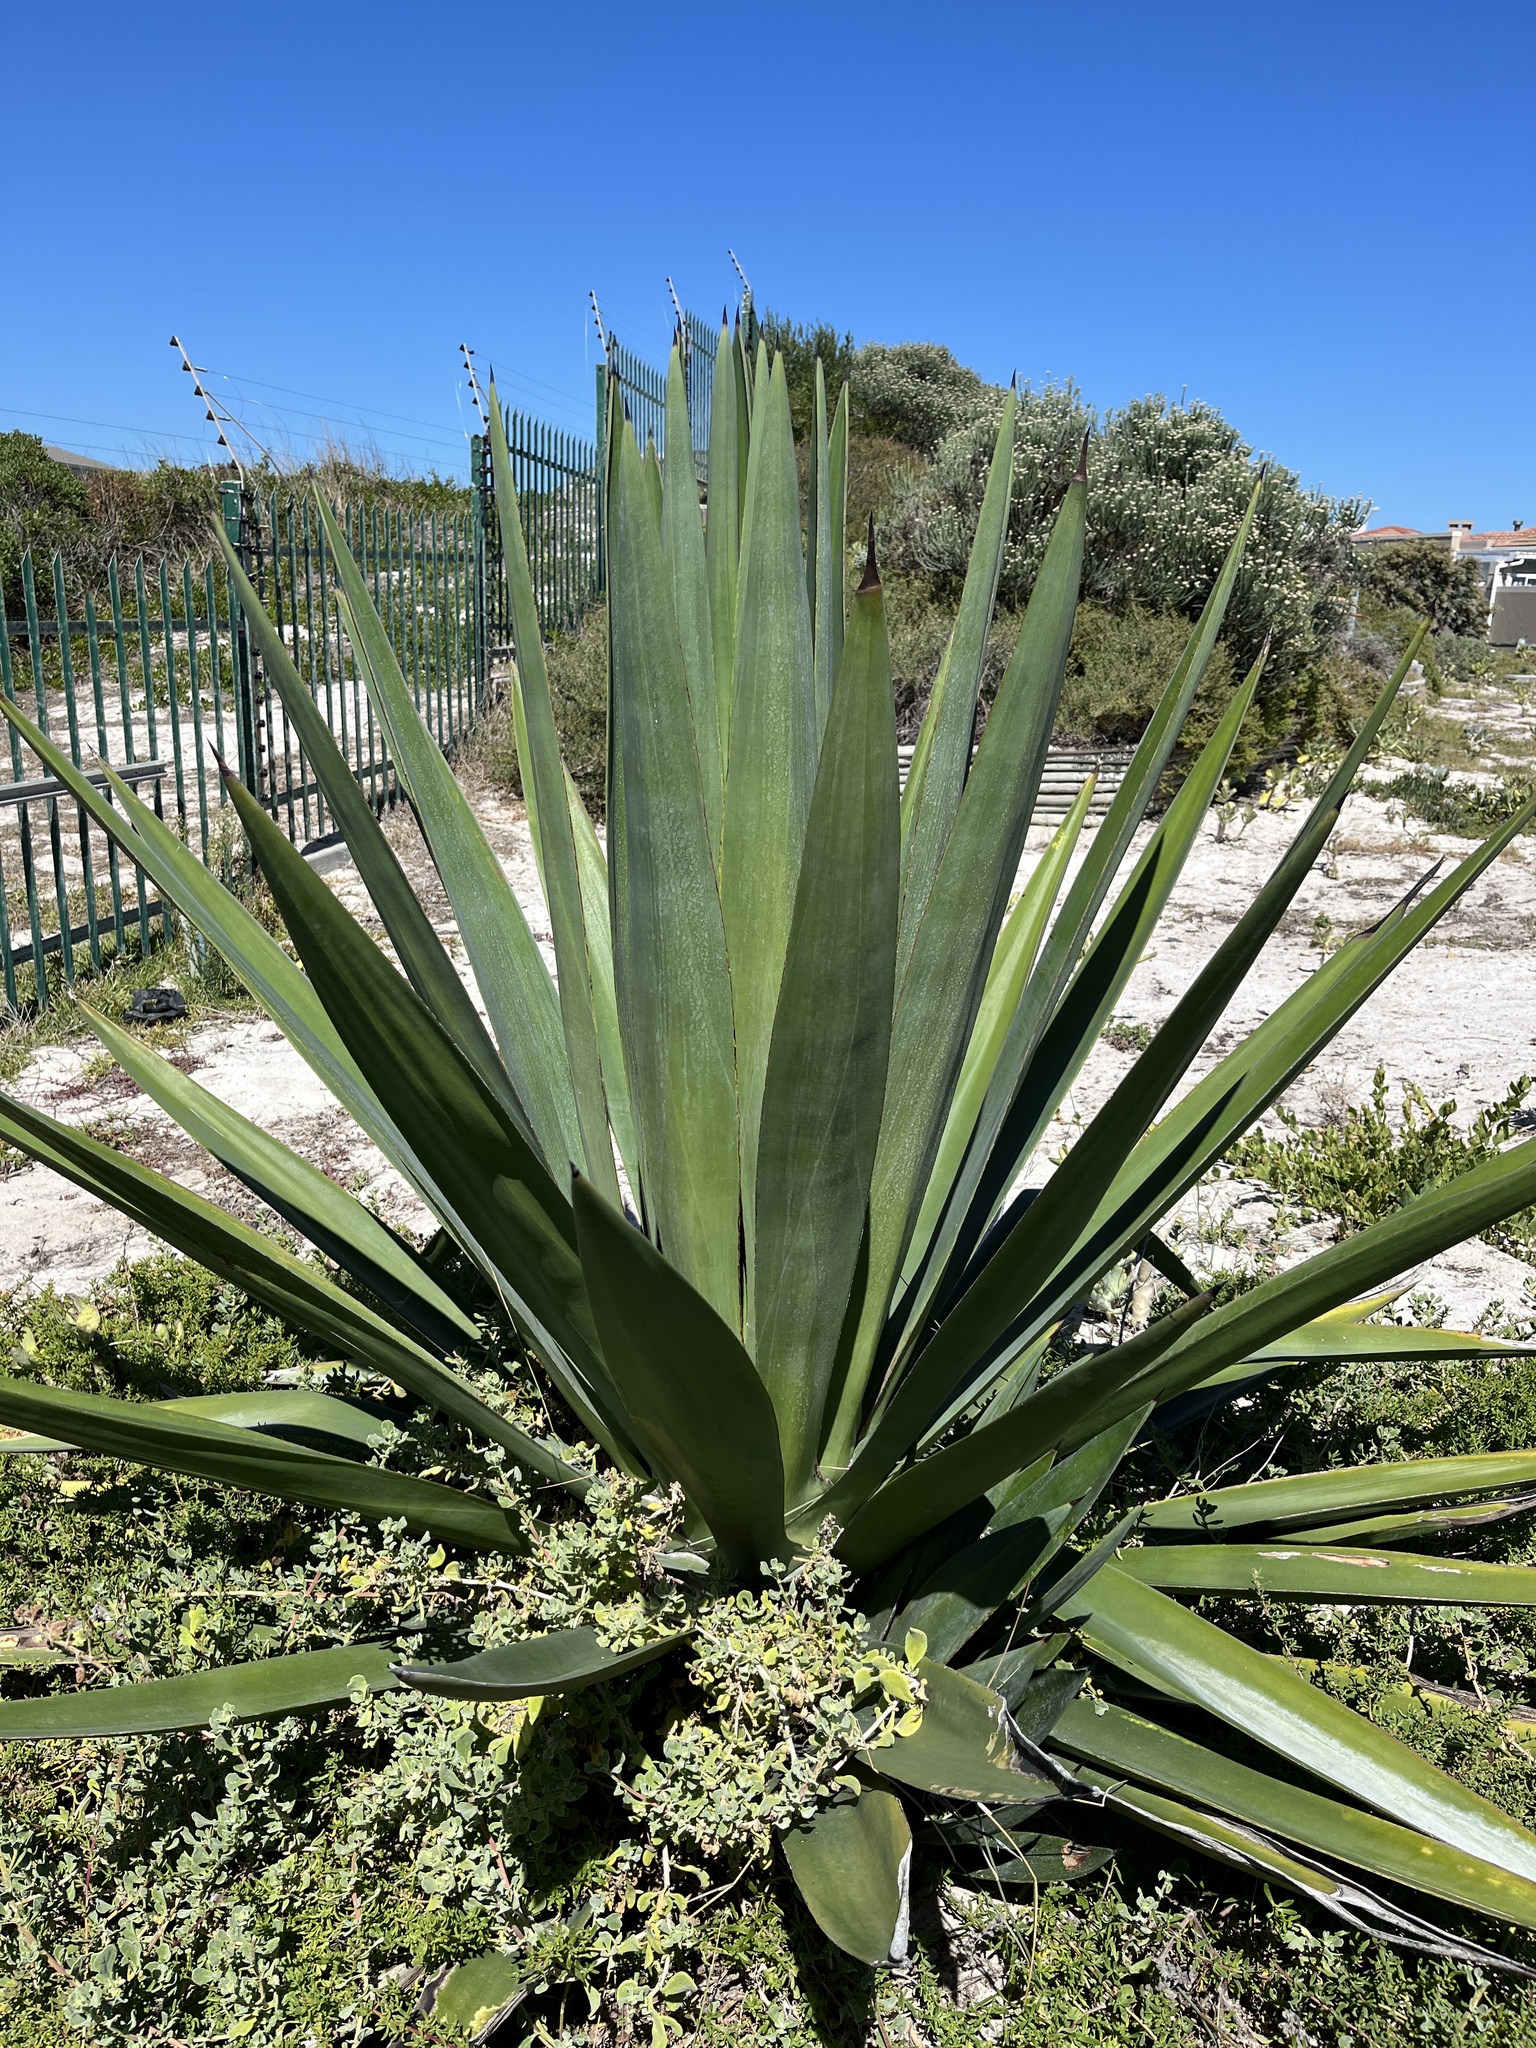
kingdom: Plantae
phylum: Tracheophyta
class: Liliopsida
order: Asparagales
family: Asparagaceae
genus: Agave
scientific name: Agave sisalana
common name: Sisal hemp
